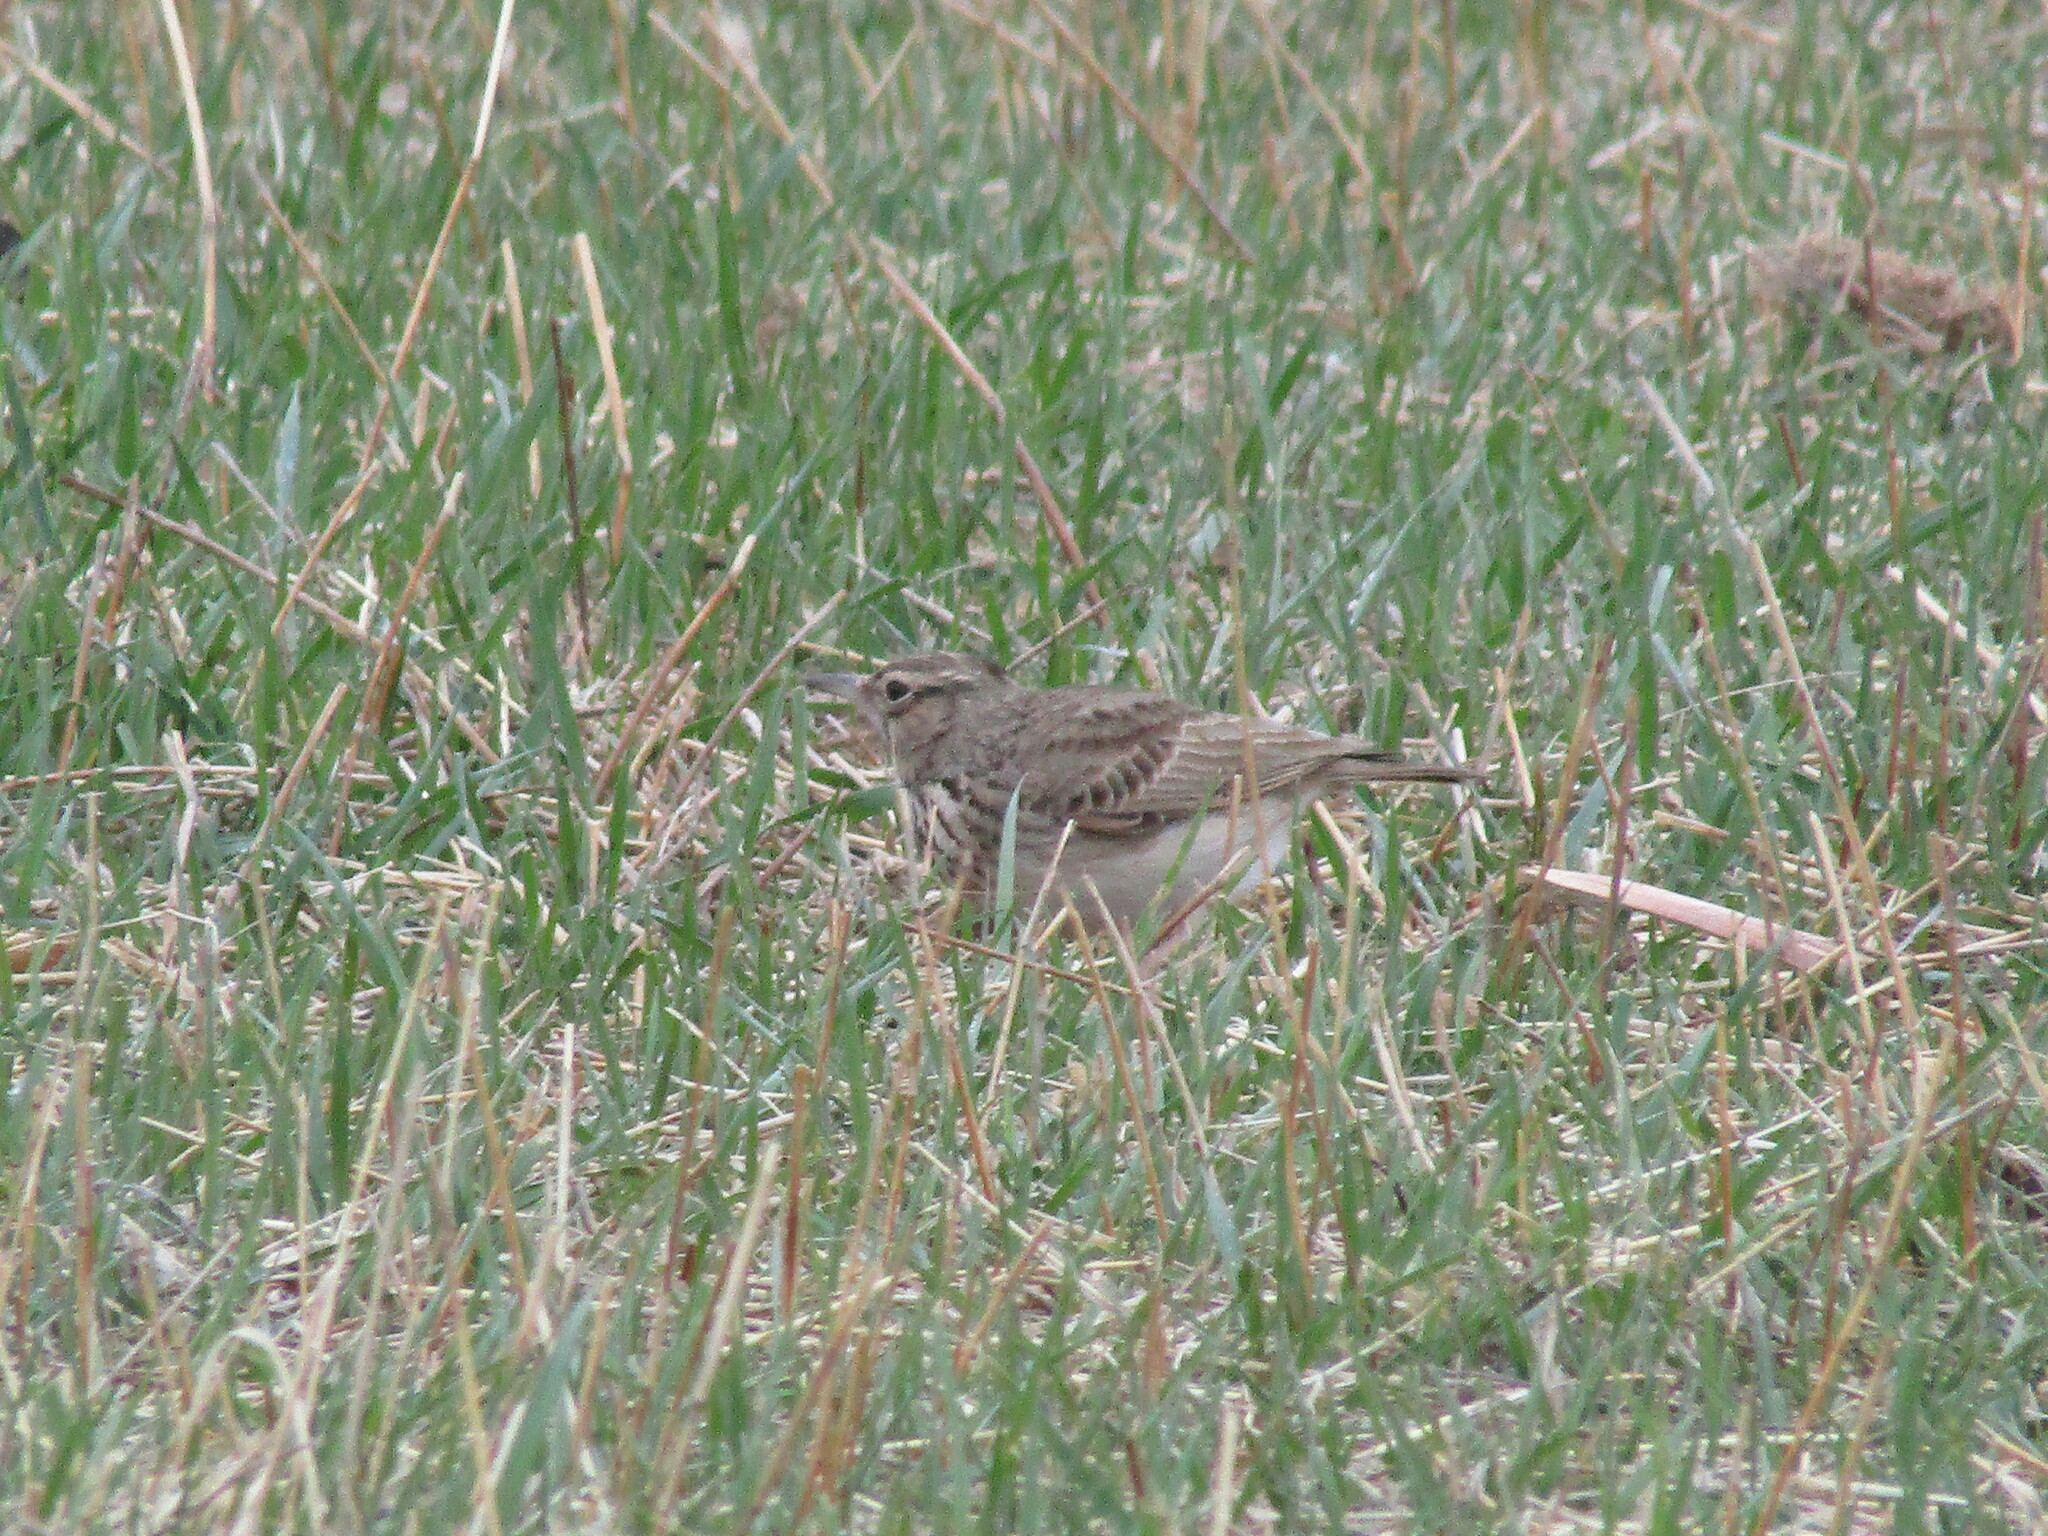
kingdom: Animalia
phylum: Chordata
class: Aves
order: Passeriformes
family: Alaudidae
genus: Galerida
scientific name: Galerida cristata
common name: Crested lark
